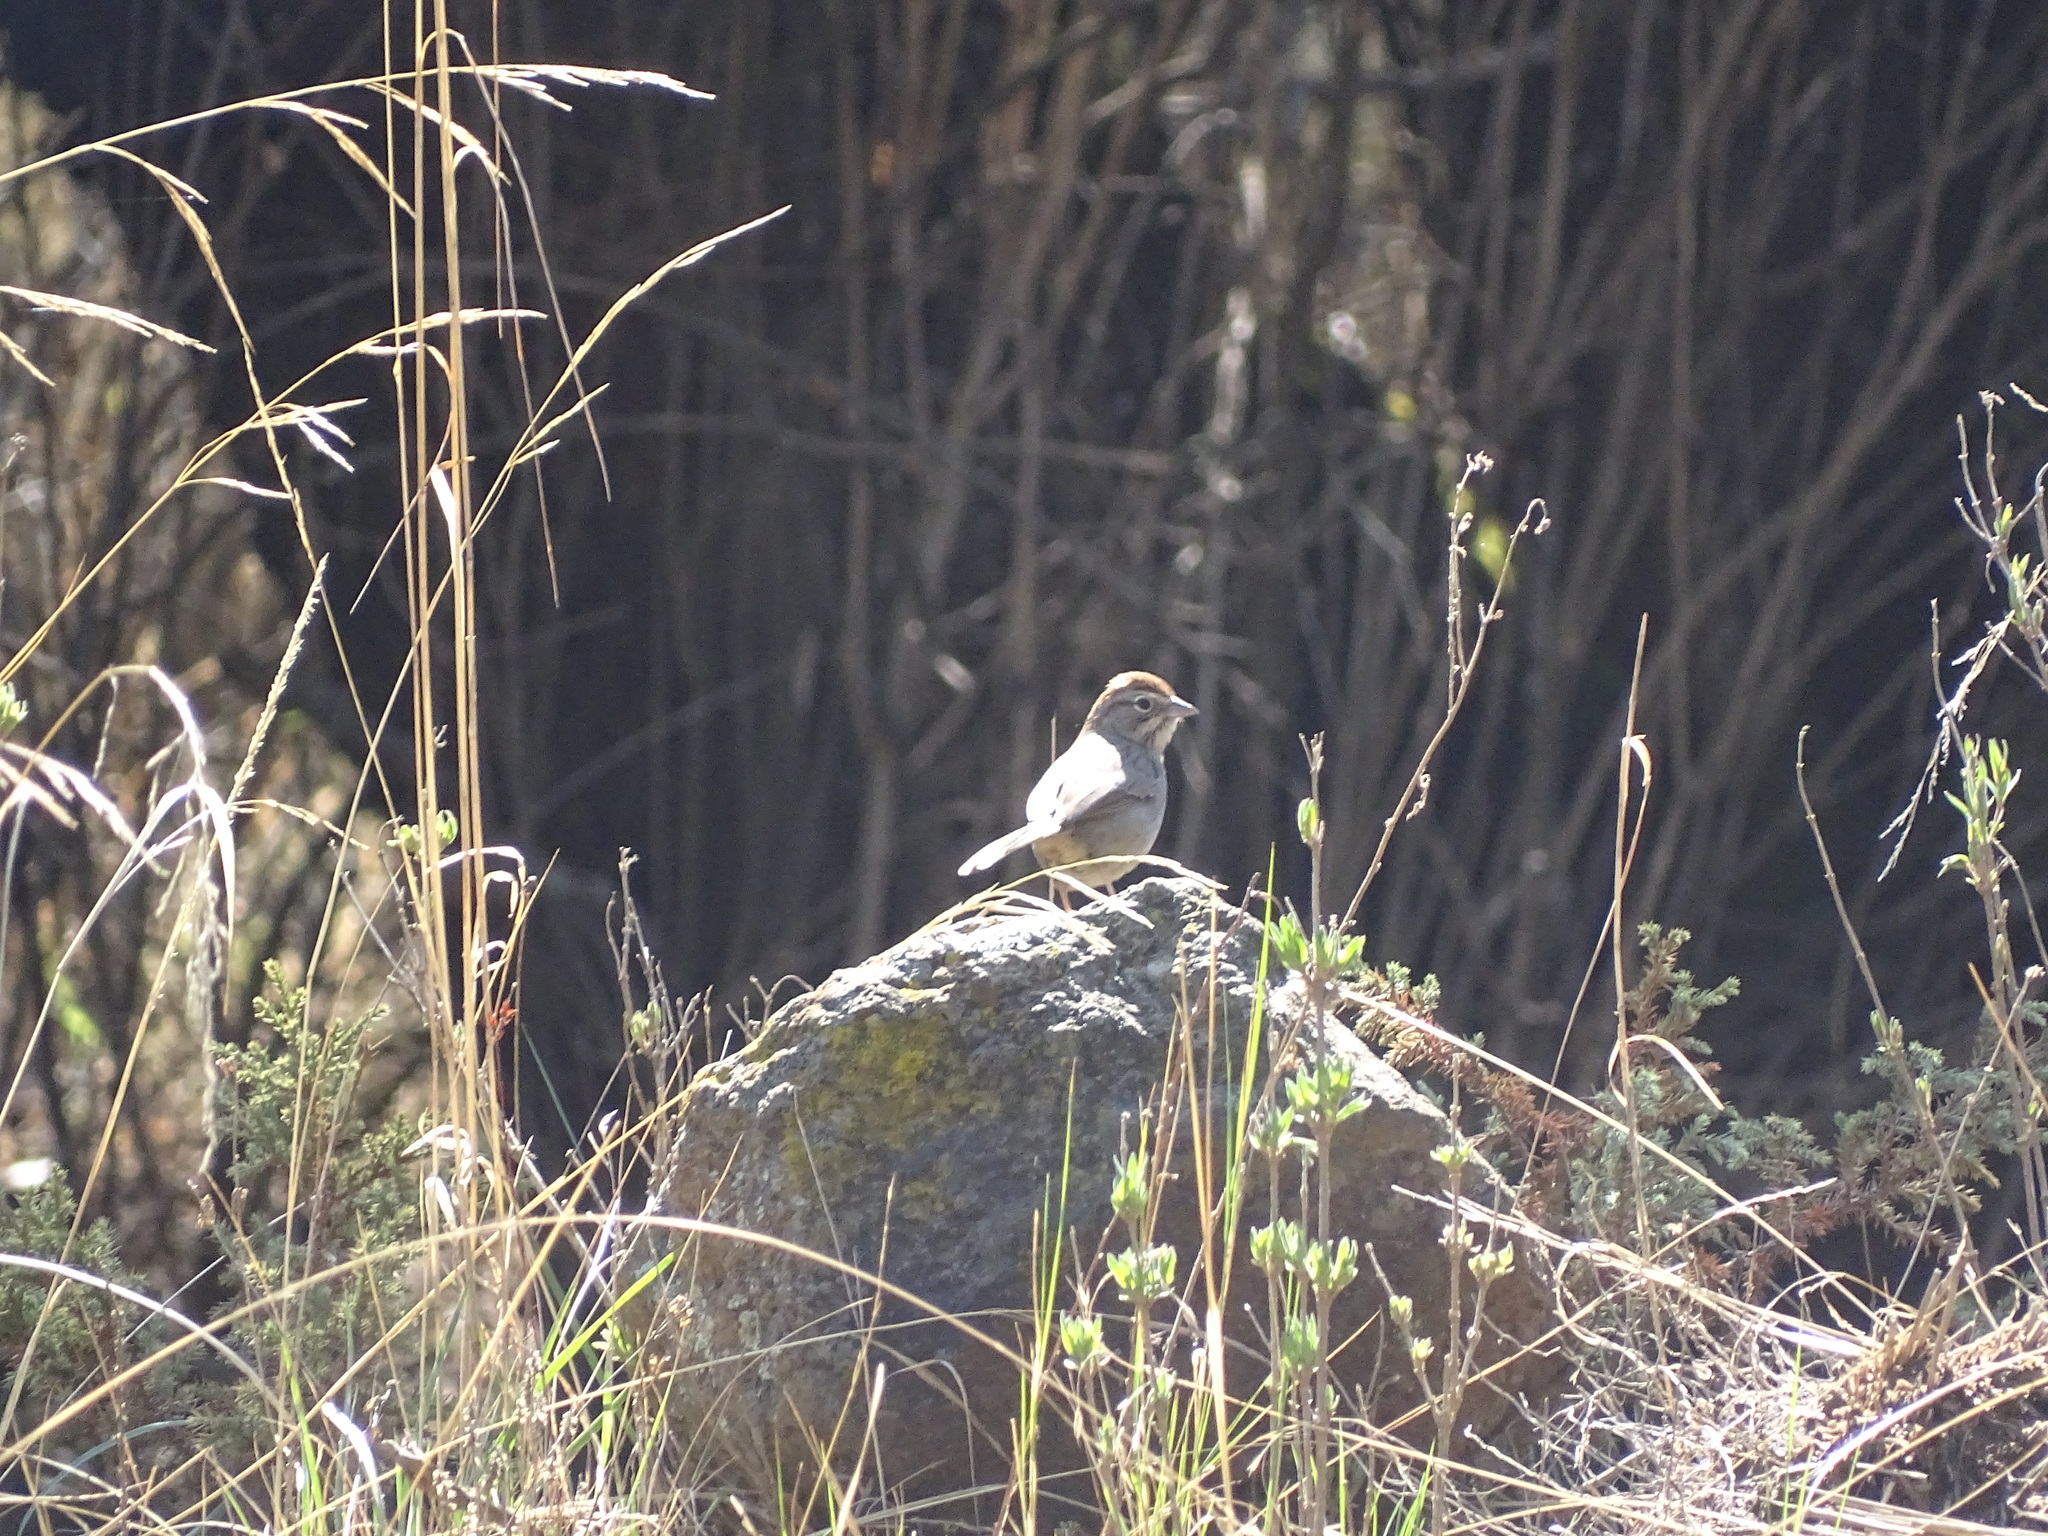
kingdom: Animalia
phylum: Chordata
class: Aves
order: Passeriformes
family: Passerellidae
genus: Aimophila
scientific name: Aimophila ruficeps
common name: Rufous-crowned sparrow
